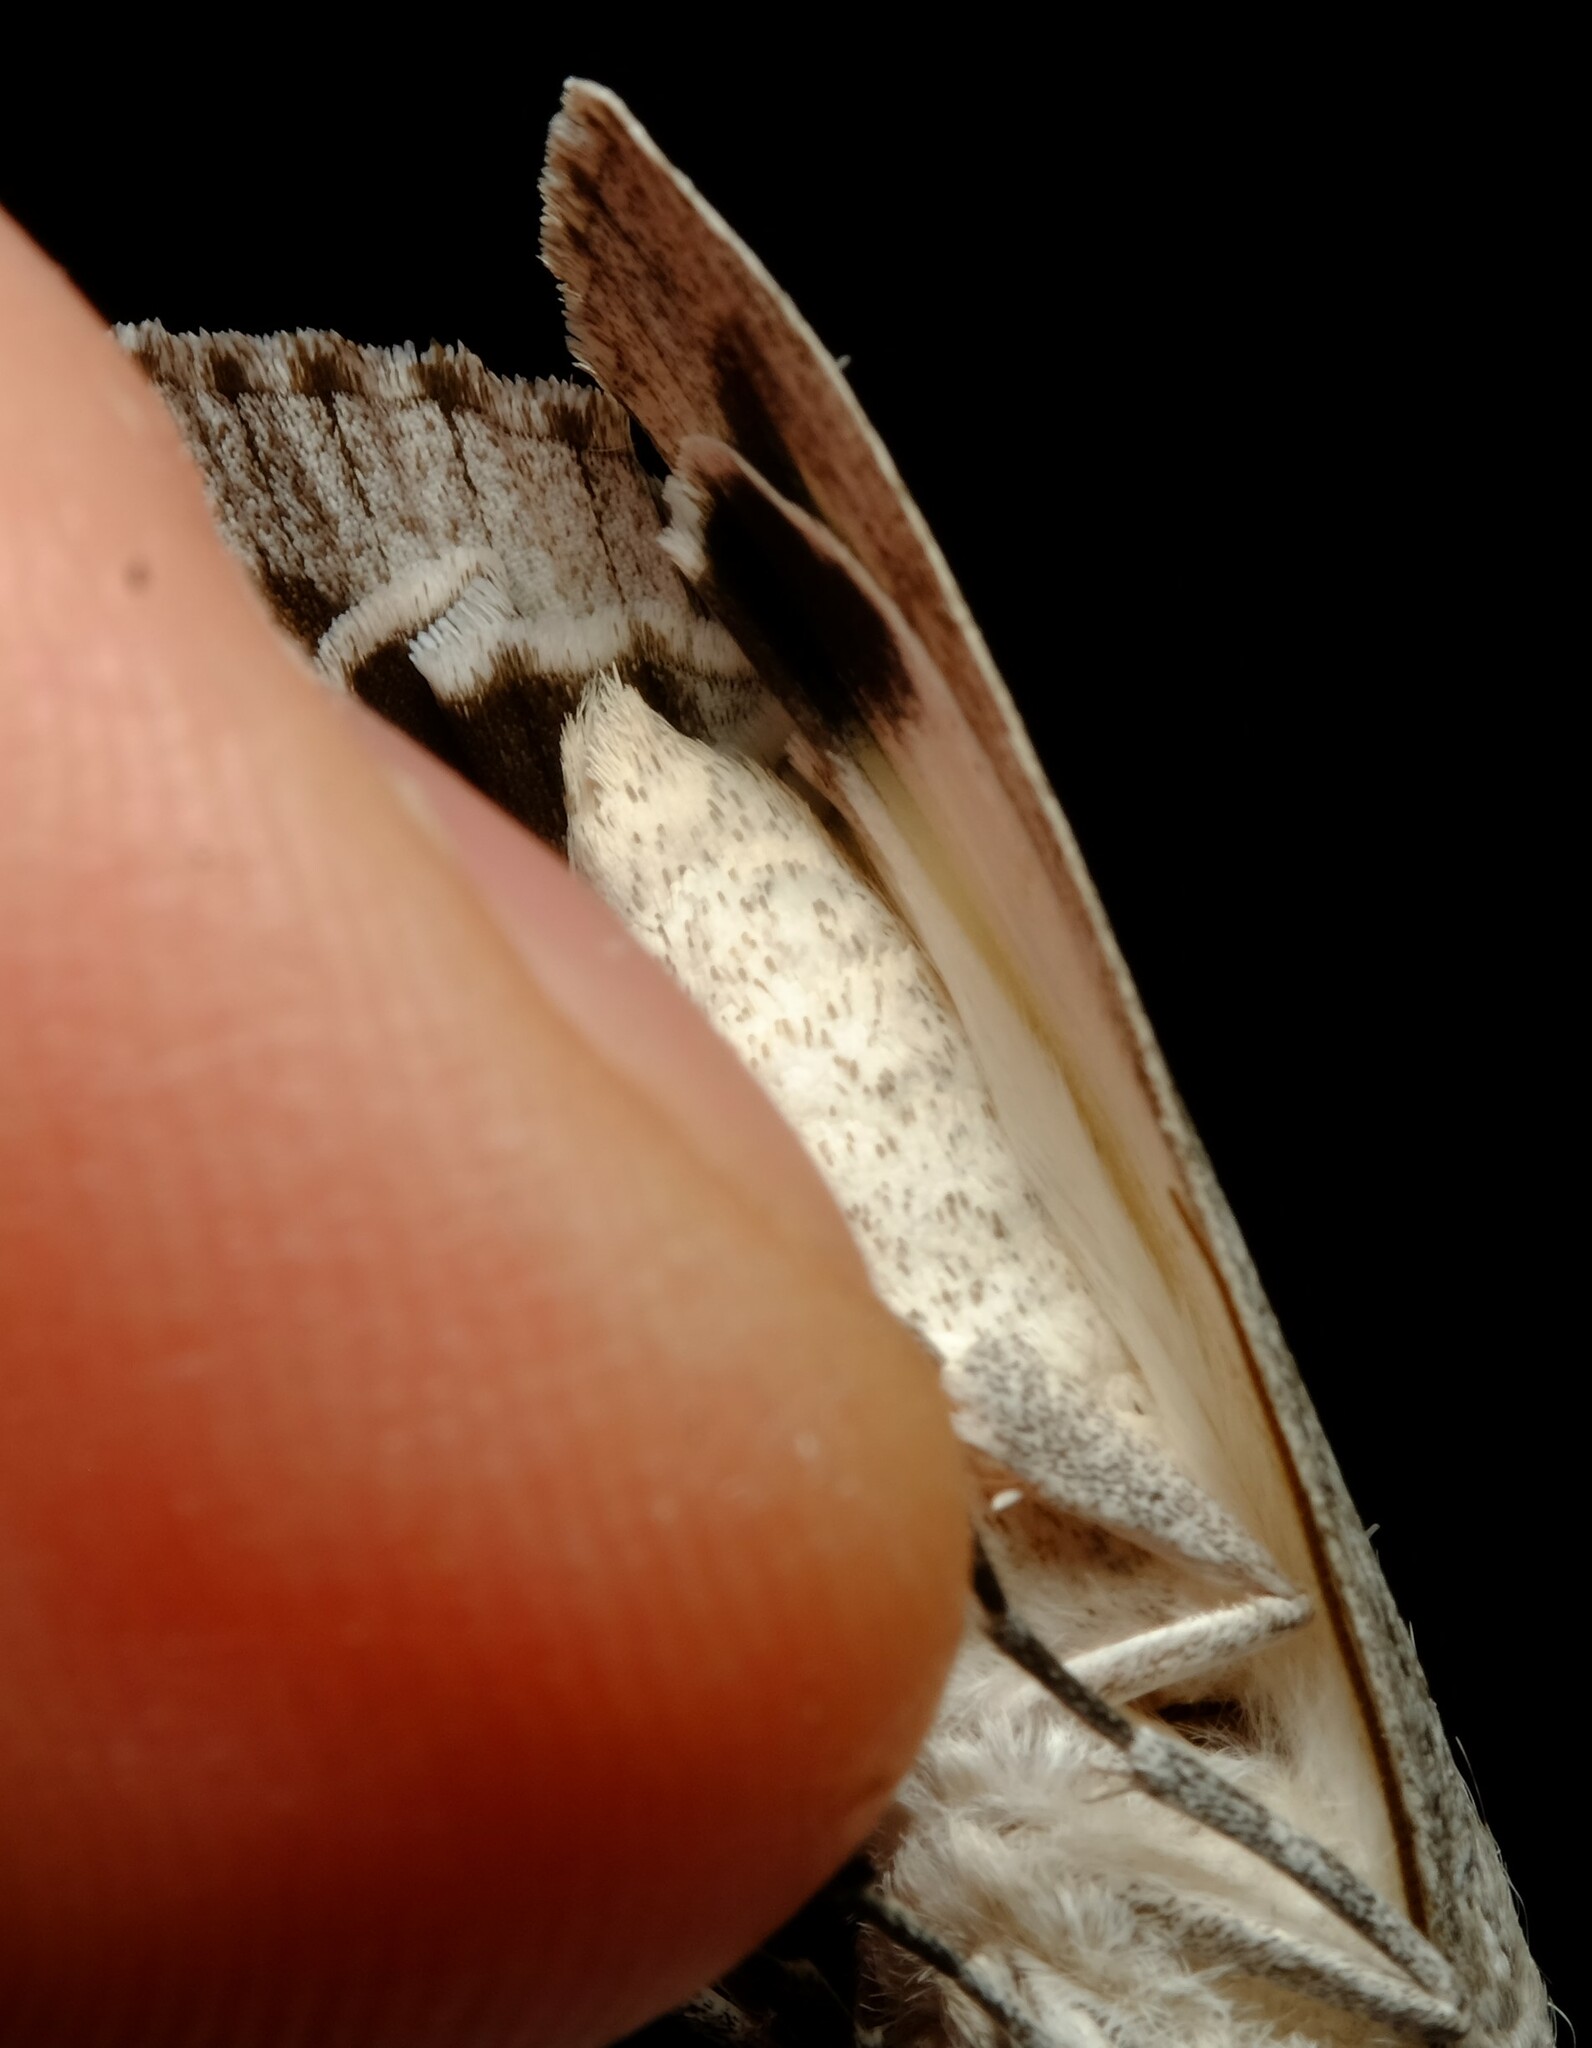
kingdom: Animalia
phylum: Arthropoda
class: Insecta
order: Lepidoptera
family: Geometridae
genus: Capusa
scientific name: Capusa senilis
